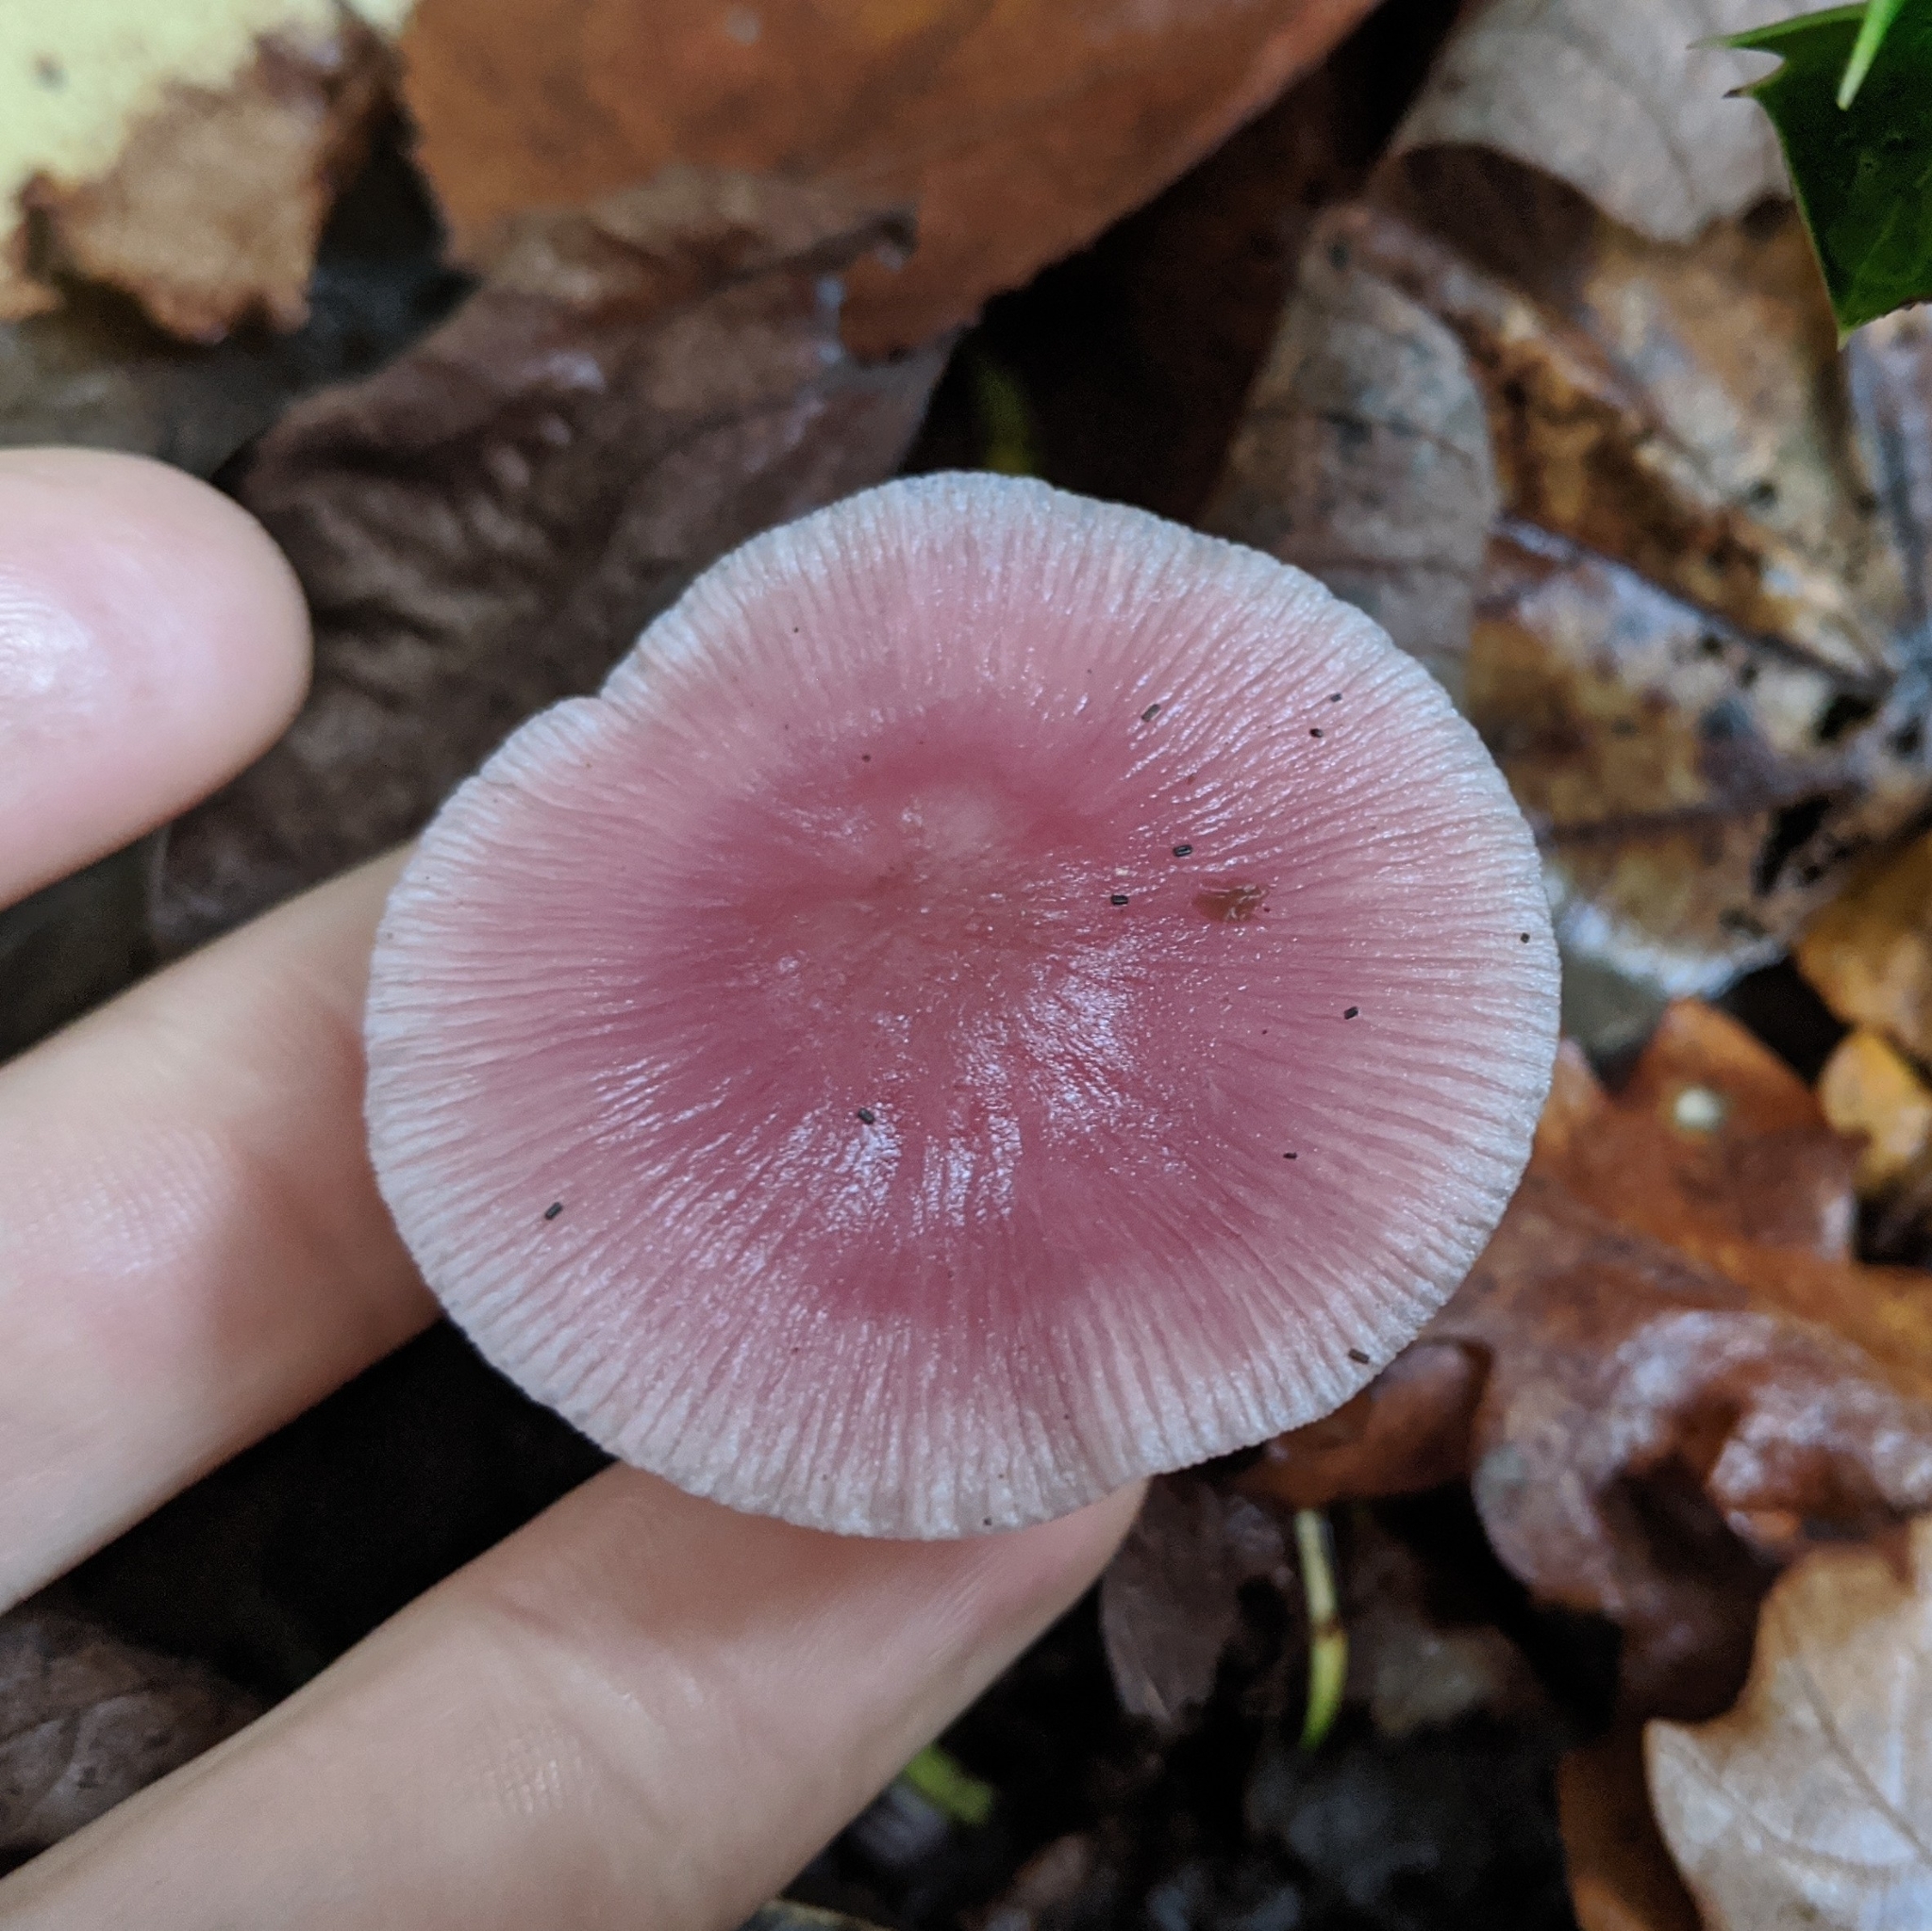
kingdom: Fungi
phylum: Basidiomycota
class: Agaricomycetes
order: Agaricales
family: Mycenaceae
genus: Mycena
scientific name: Mycena rosea
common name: Rosy bonnet
